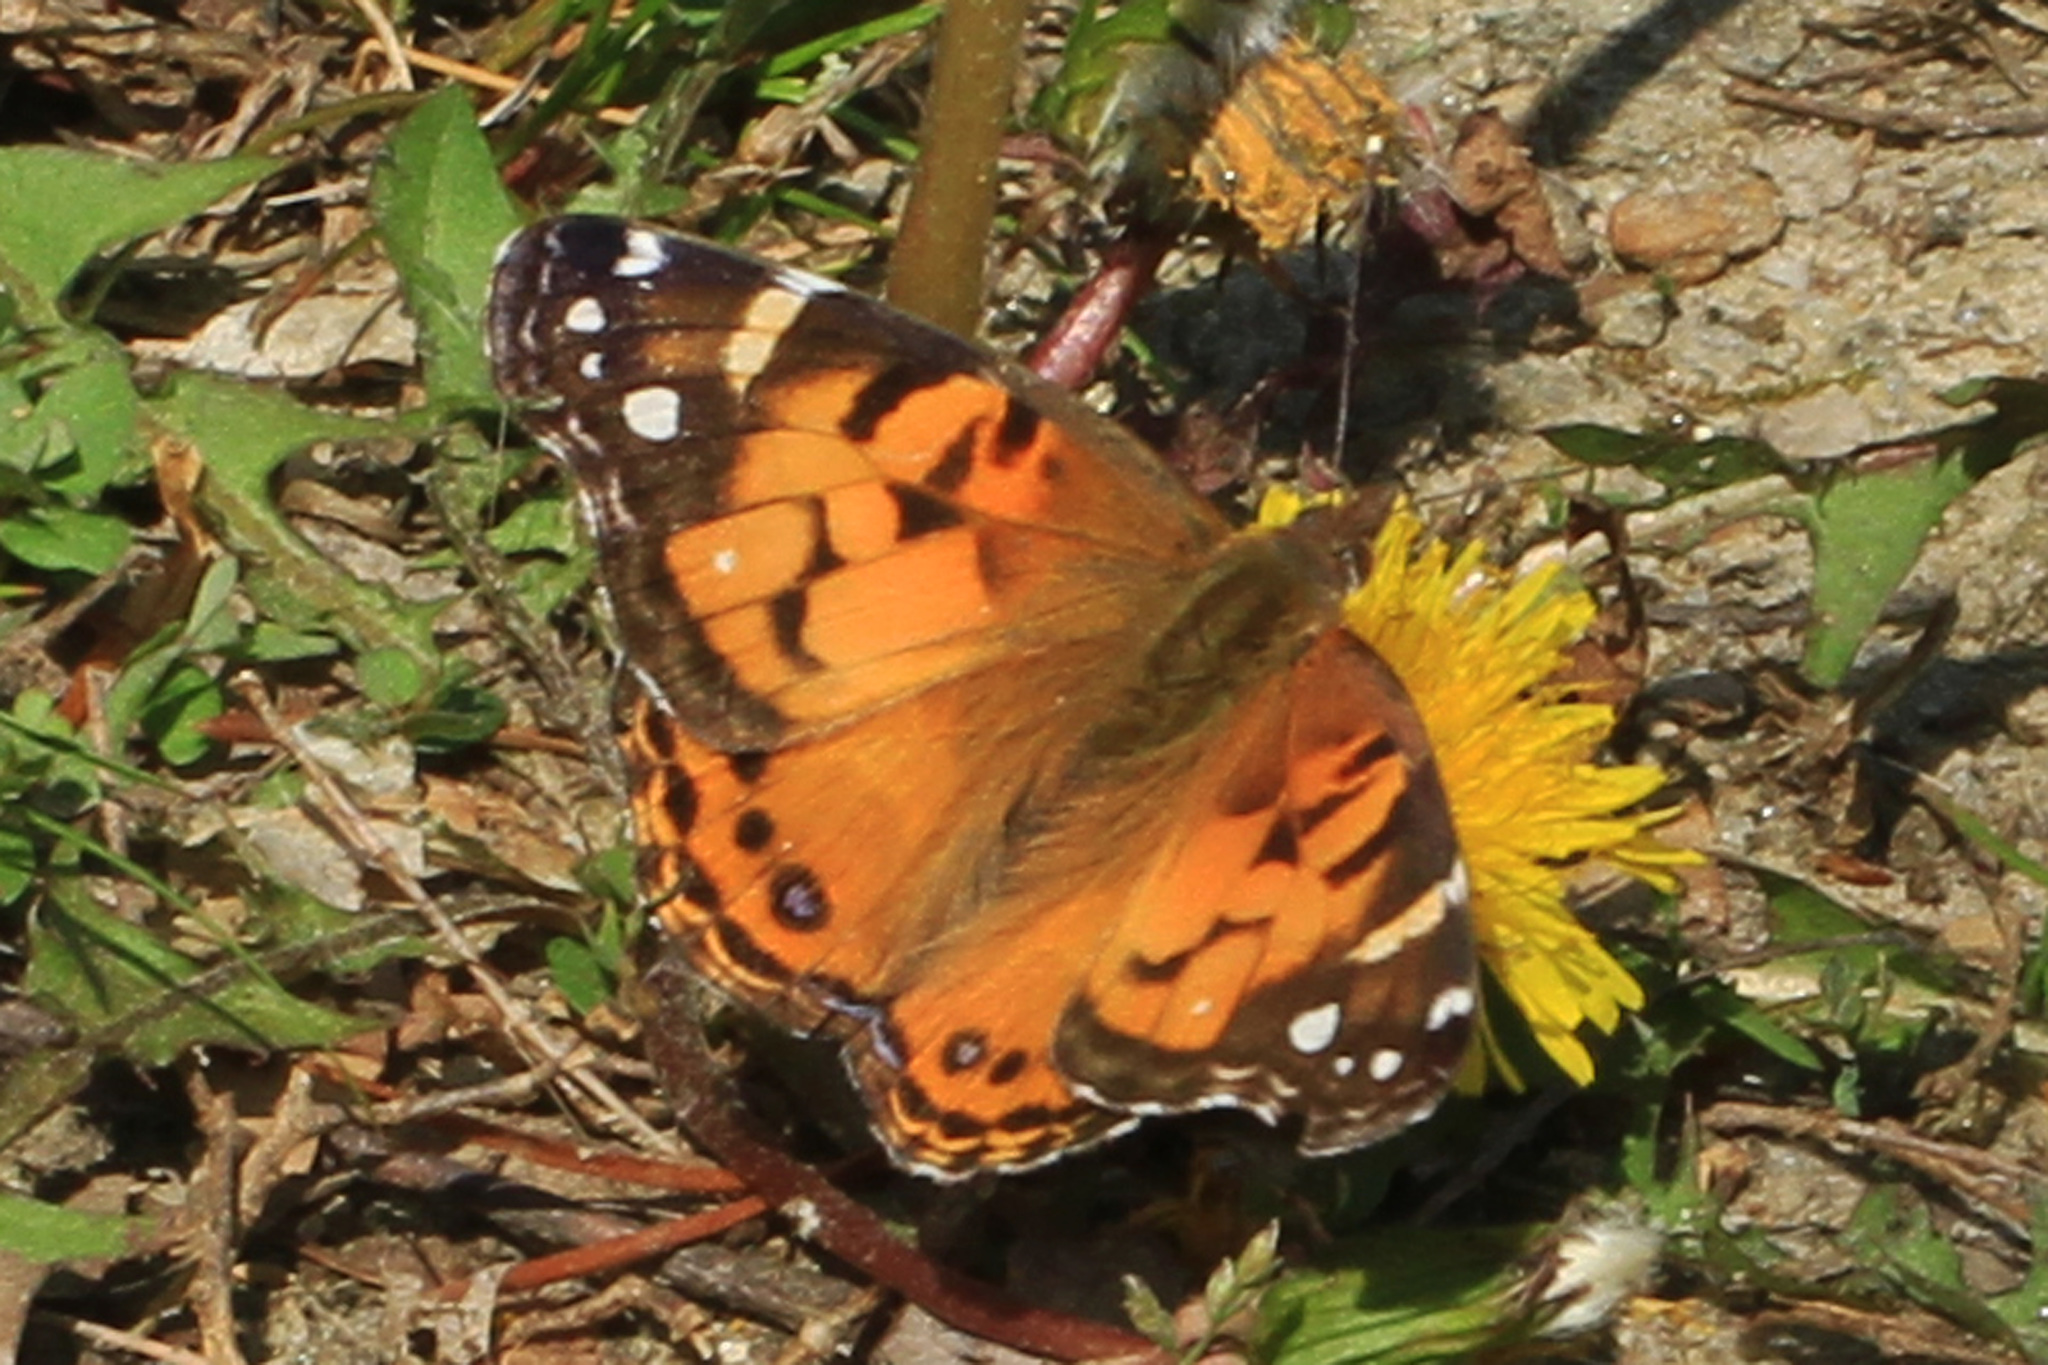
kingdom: Animalia
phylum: Arthropoda
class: Insecta
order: Lepidoptera
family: Nymphalidae
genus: Vanessa
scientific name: Vanessa virginiensis
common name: American lady
